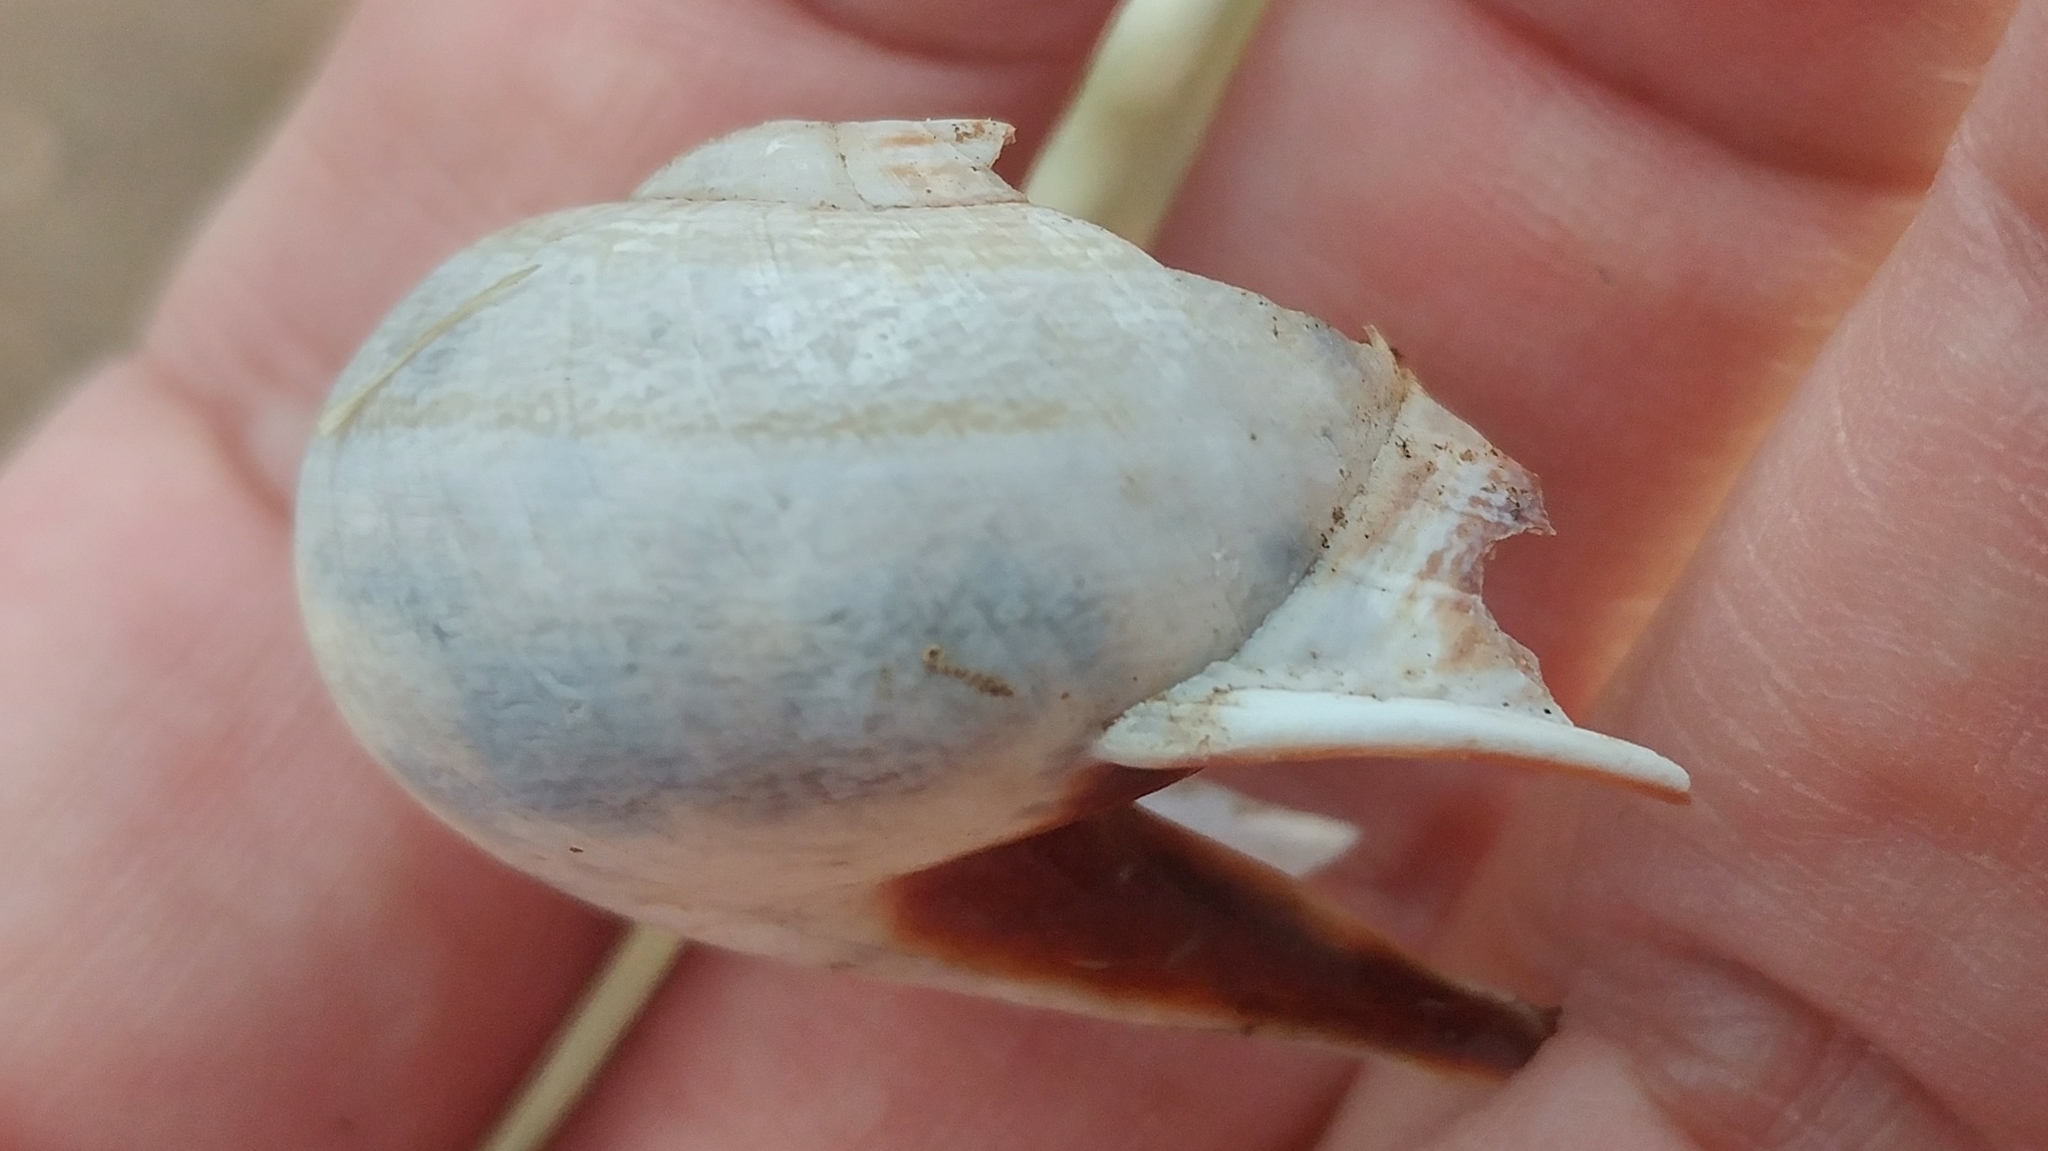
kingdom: Animalia
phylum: Mollusca
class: Gastropoda
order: Stylommatophora
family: Helicidae
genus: Otala
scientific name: Otala lactea
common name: Milk snail
